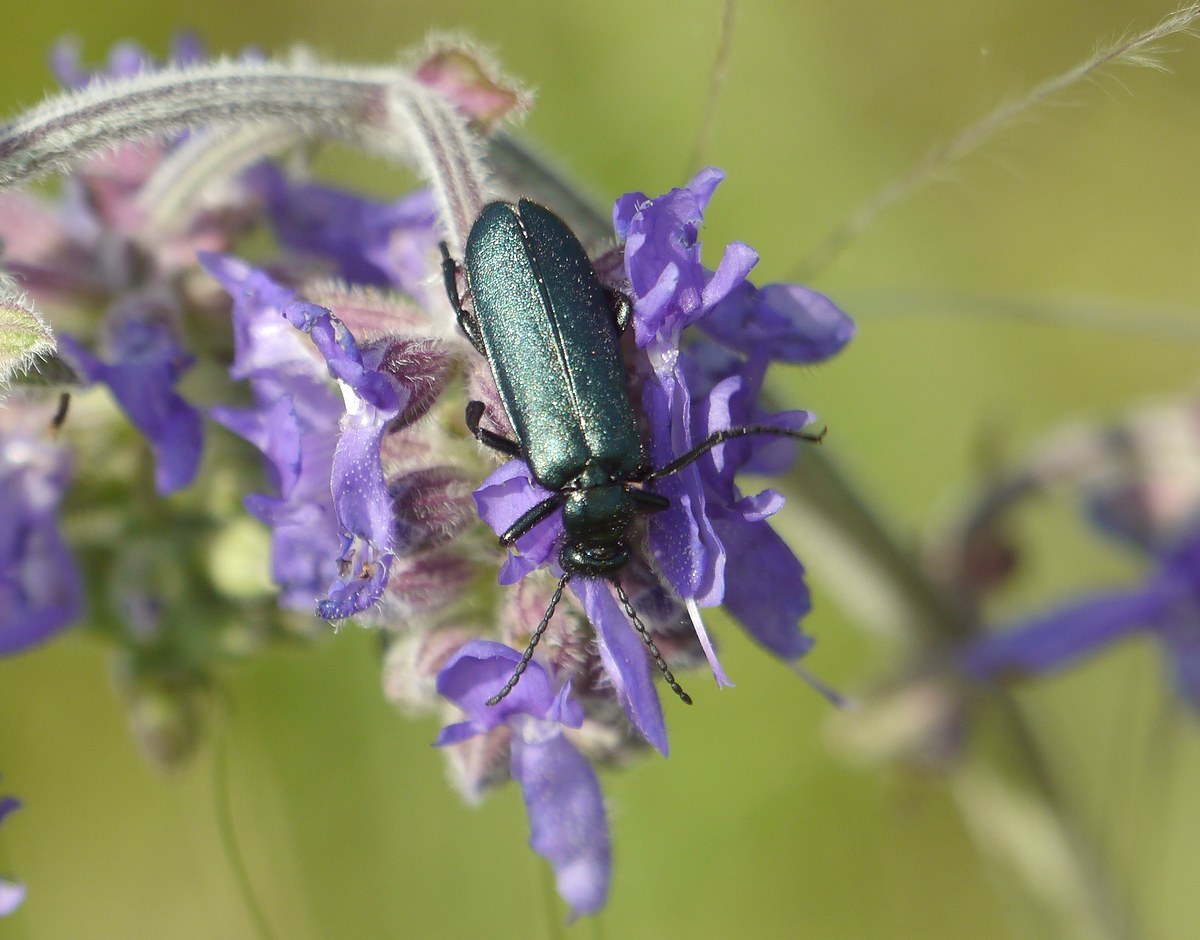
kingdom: Animalia
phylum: Arthropoda
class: Insecta
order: Coleoptera
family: Meloidae
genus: Alosimus
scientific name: Alosimus chalybaeus
